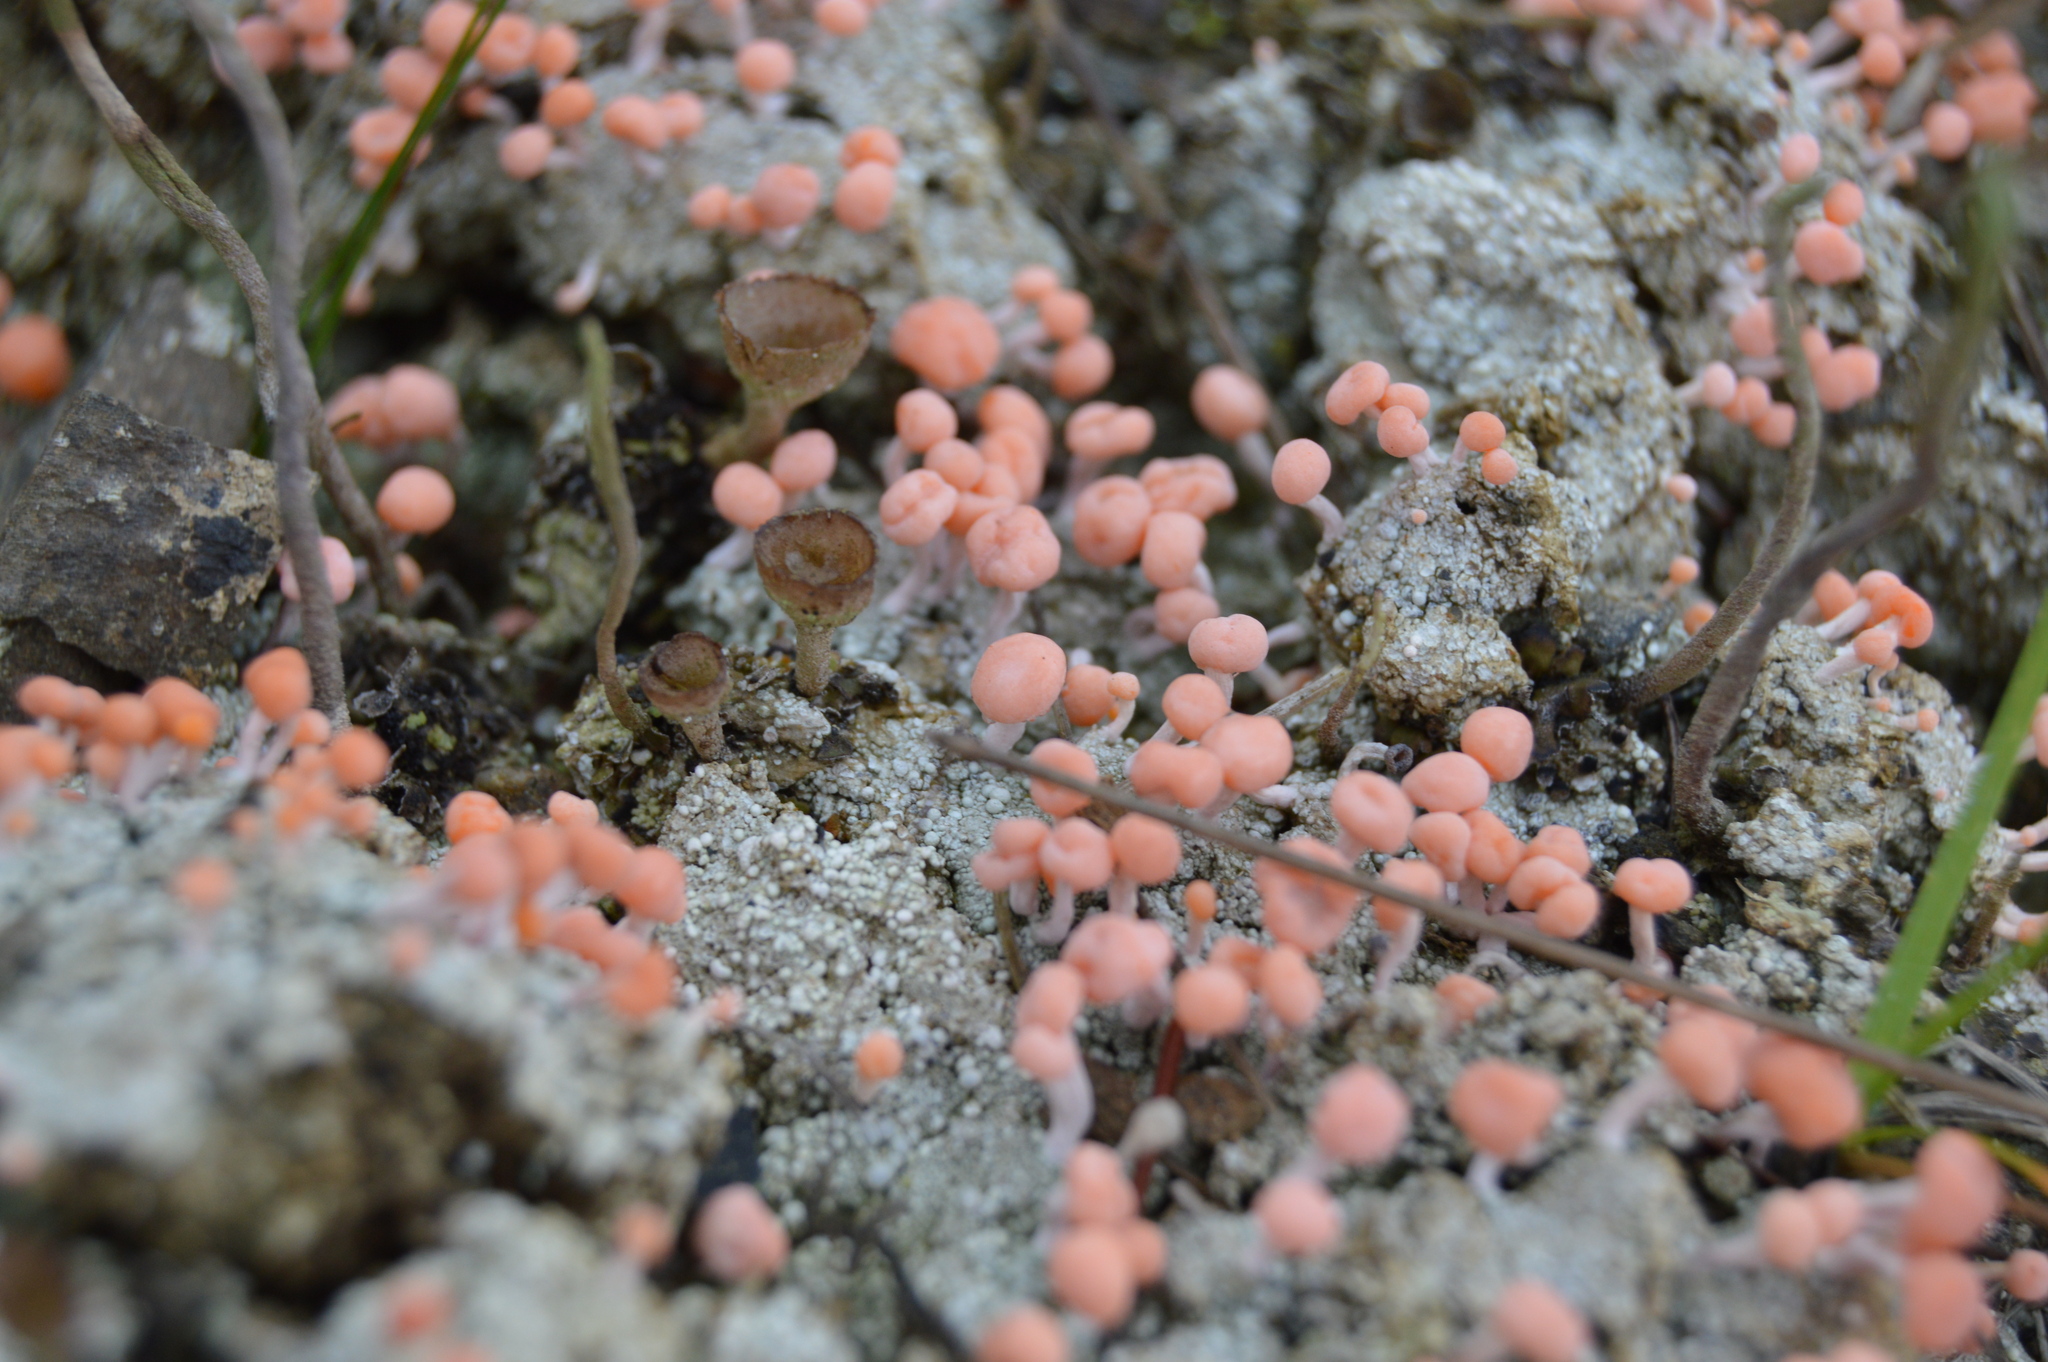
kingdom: Fungi
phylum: Ascomycota
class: Lecanoromycetes
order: Pertusariales
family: Icmadophilaceae
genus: Dibaeis
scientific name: Dibaeis baeomyces
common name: Pink earth lichen
